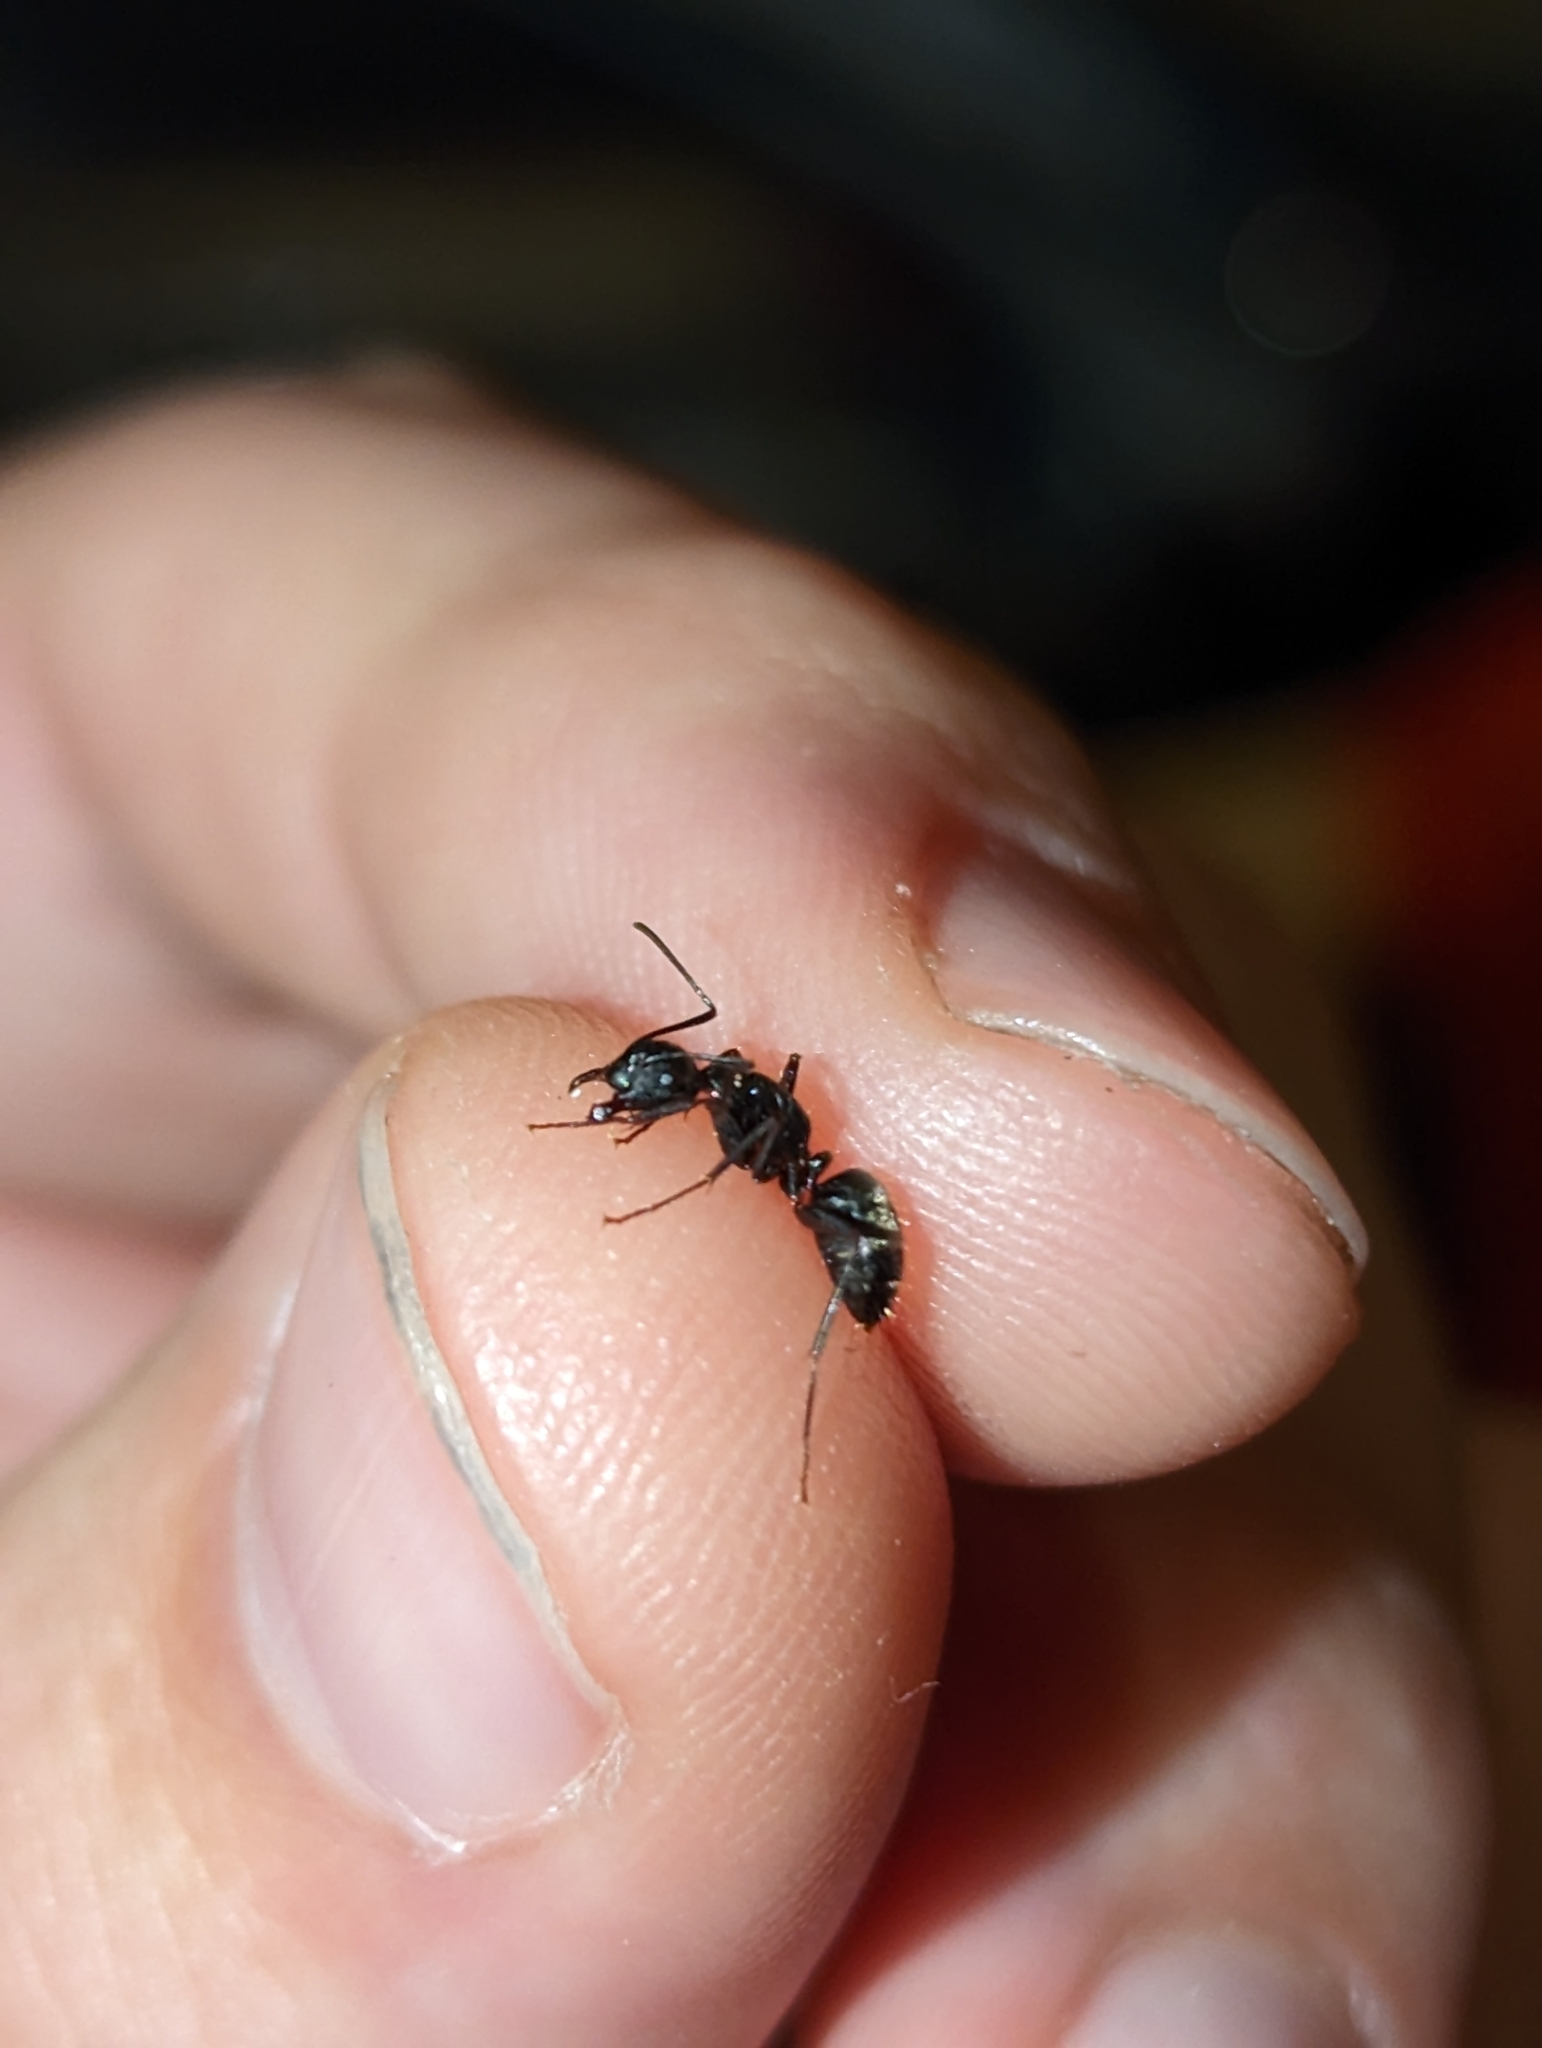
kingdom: Animalia
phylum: Arthropoda
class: Insecta
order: Hymenoptera
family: Formicidae
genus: Camponotus
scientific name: Camponotus pennsylvanicus
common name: Black carpenter ant
